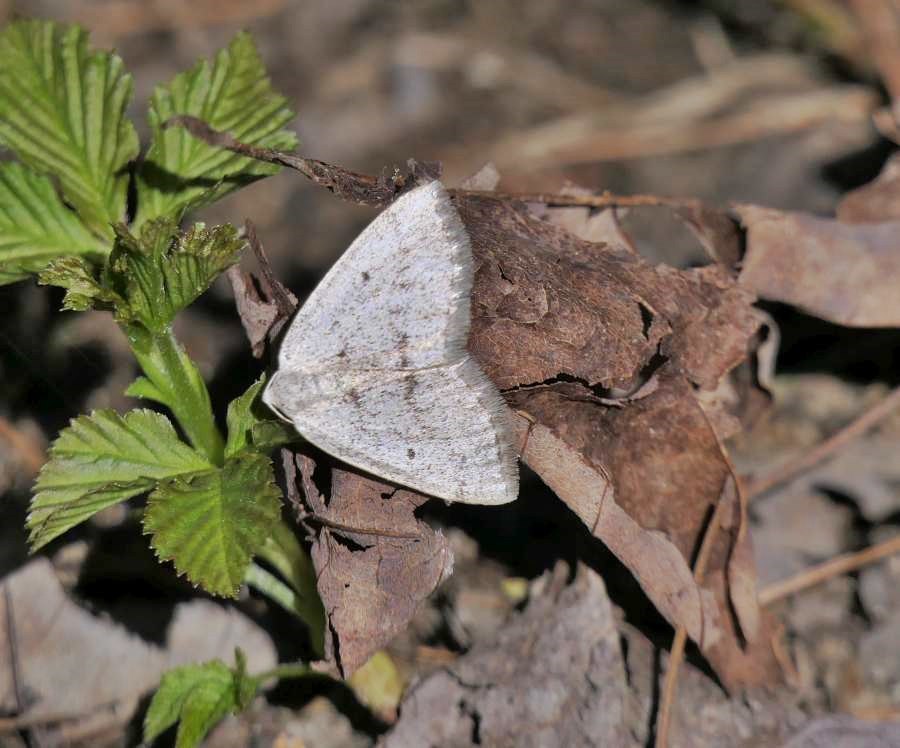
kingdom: Animalia
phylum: Arthropoda
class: Insecta
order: Lepidoptera
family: Geometridae
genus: Lomographa
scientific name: Lomographa glomeraria
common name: Gray spring moth
